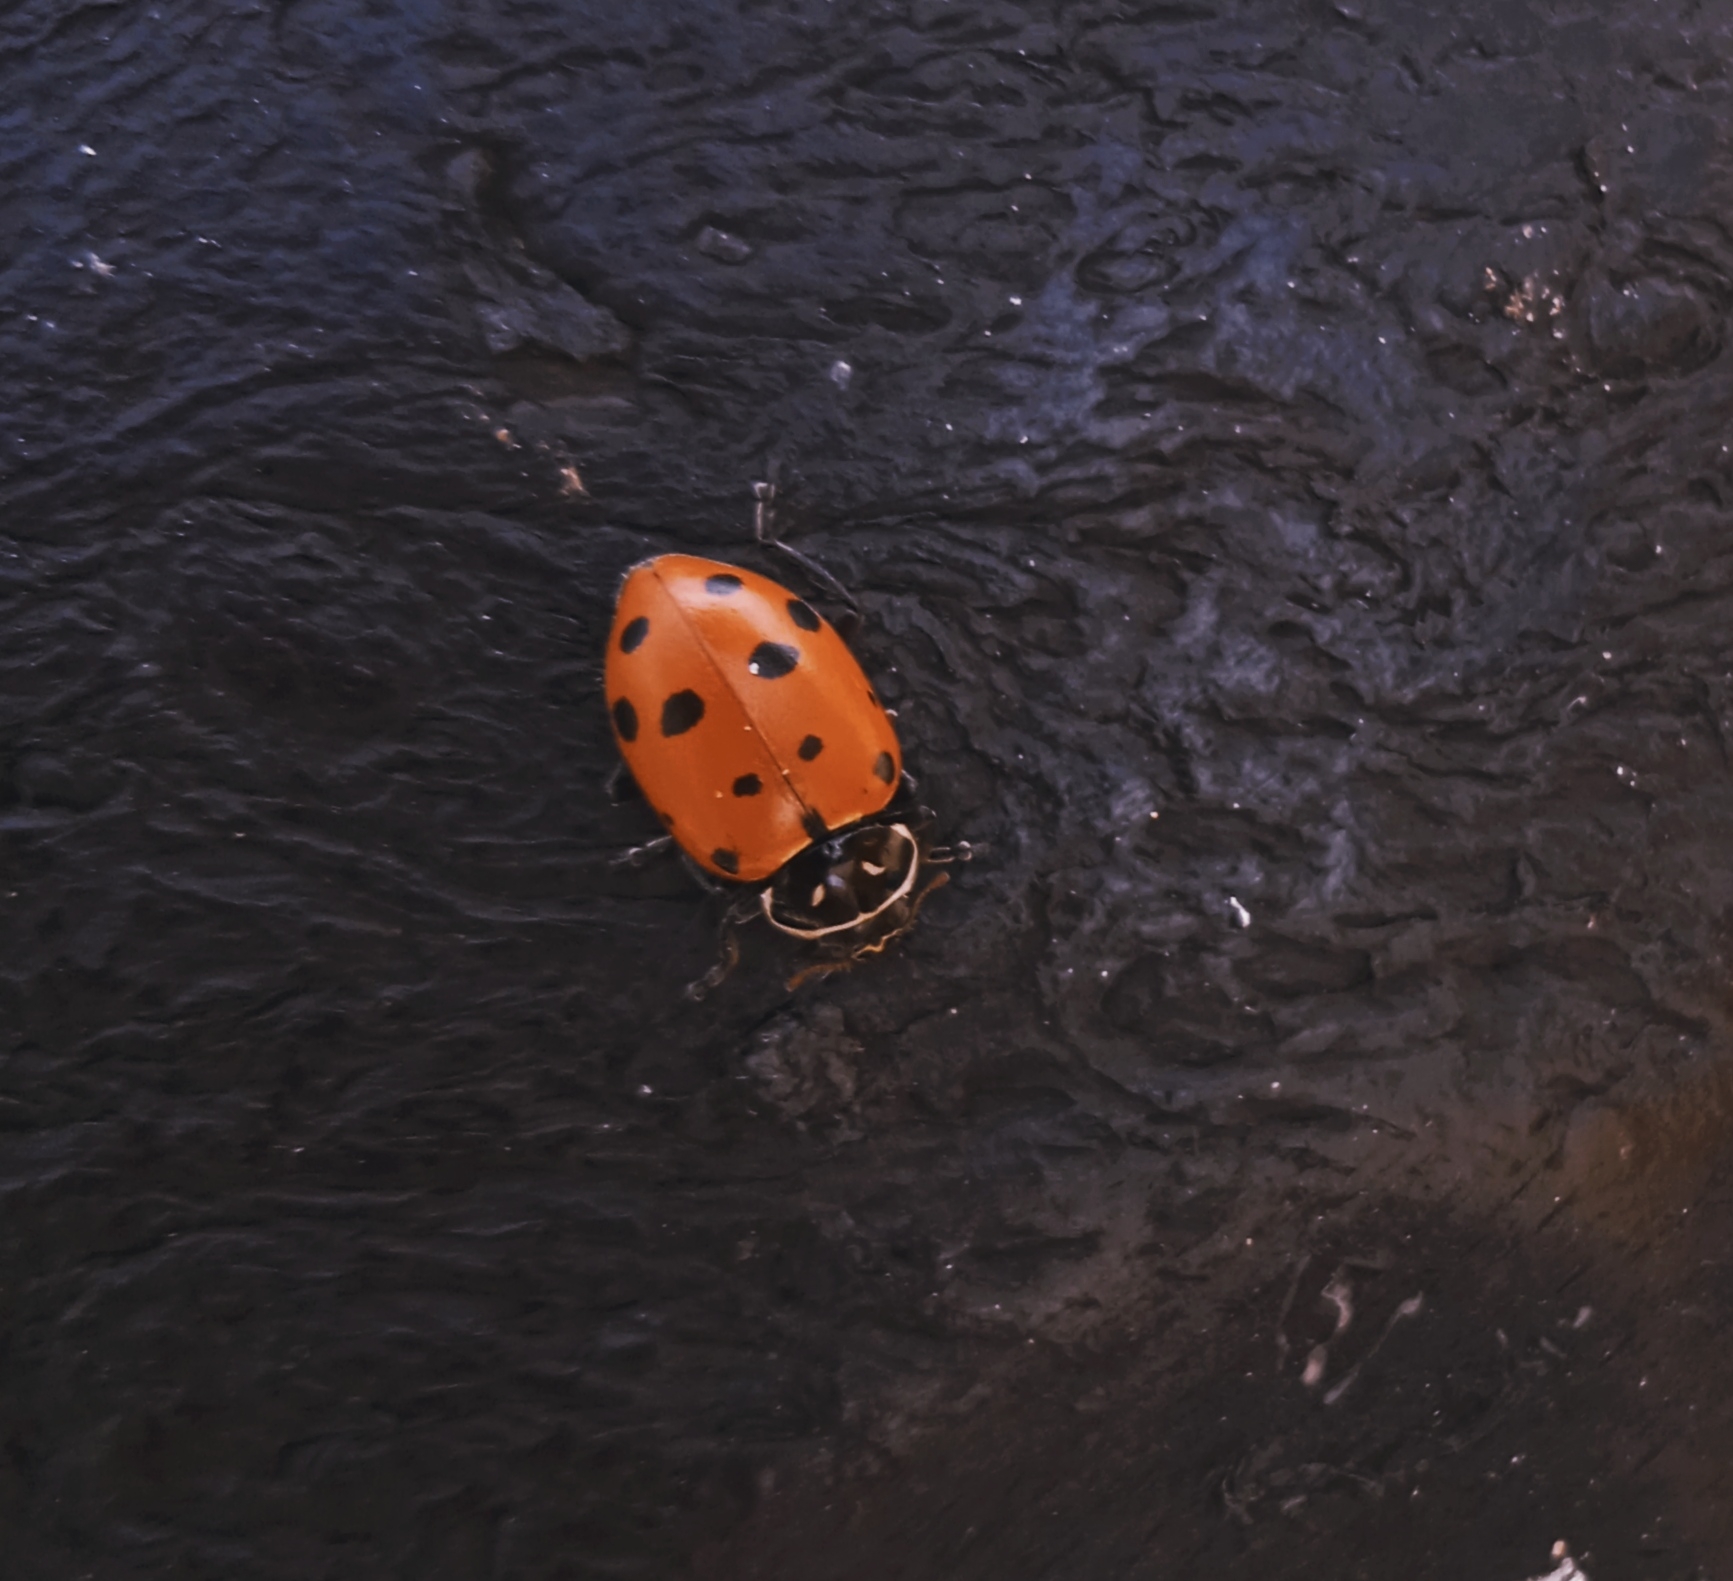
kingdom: Animalia
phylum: Arthropoda
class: Insecta
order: Coleoptera
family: Coccinellidae
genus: Hippodamia
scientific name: Hippodamia convergens
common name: Convergent lady beetle
